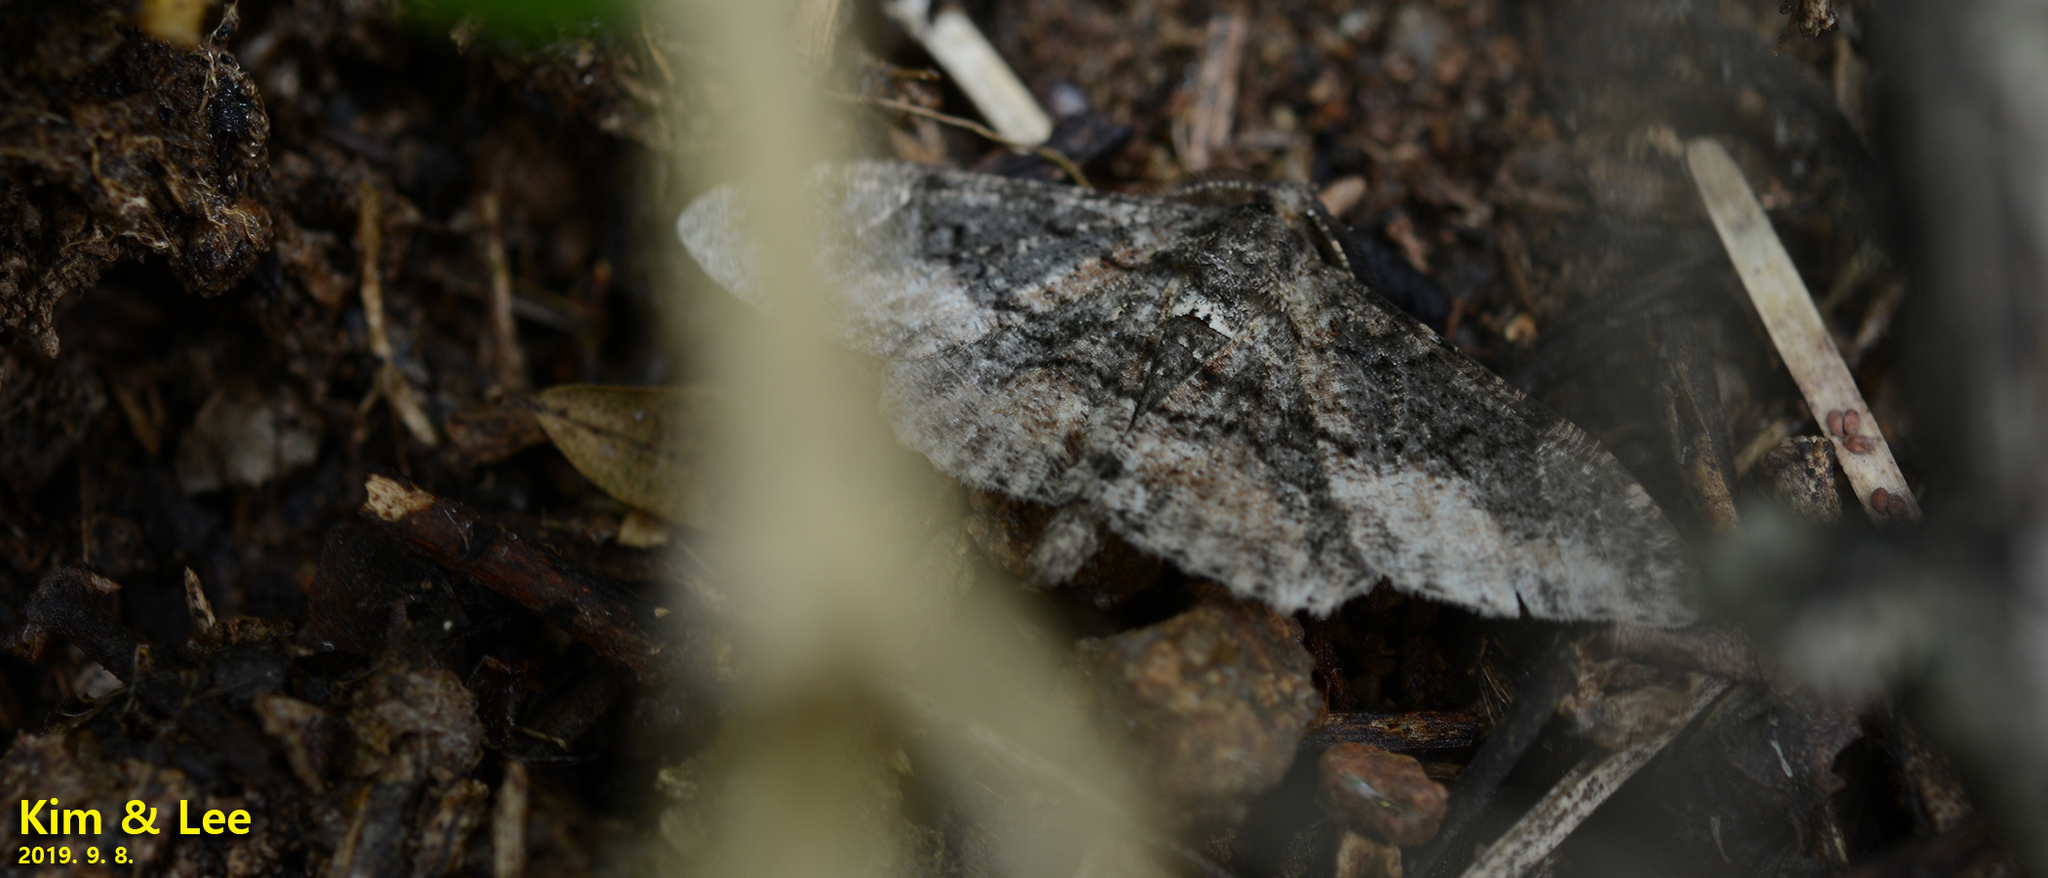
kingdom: Animalia
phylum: Arthropoda
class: Insecta
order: Lepidoptera
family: Geometridae
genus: Jankowskia
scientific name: Jankowskia athleta
